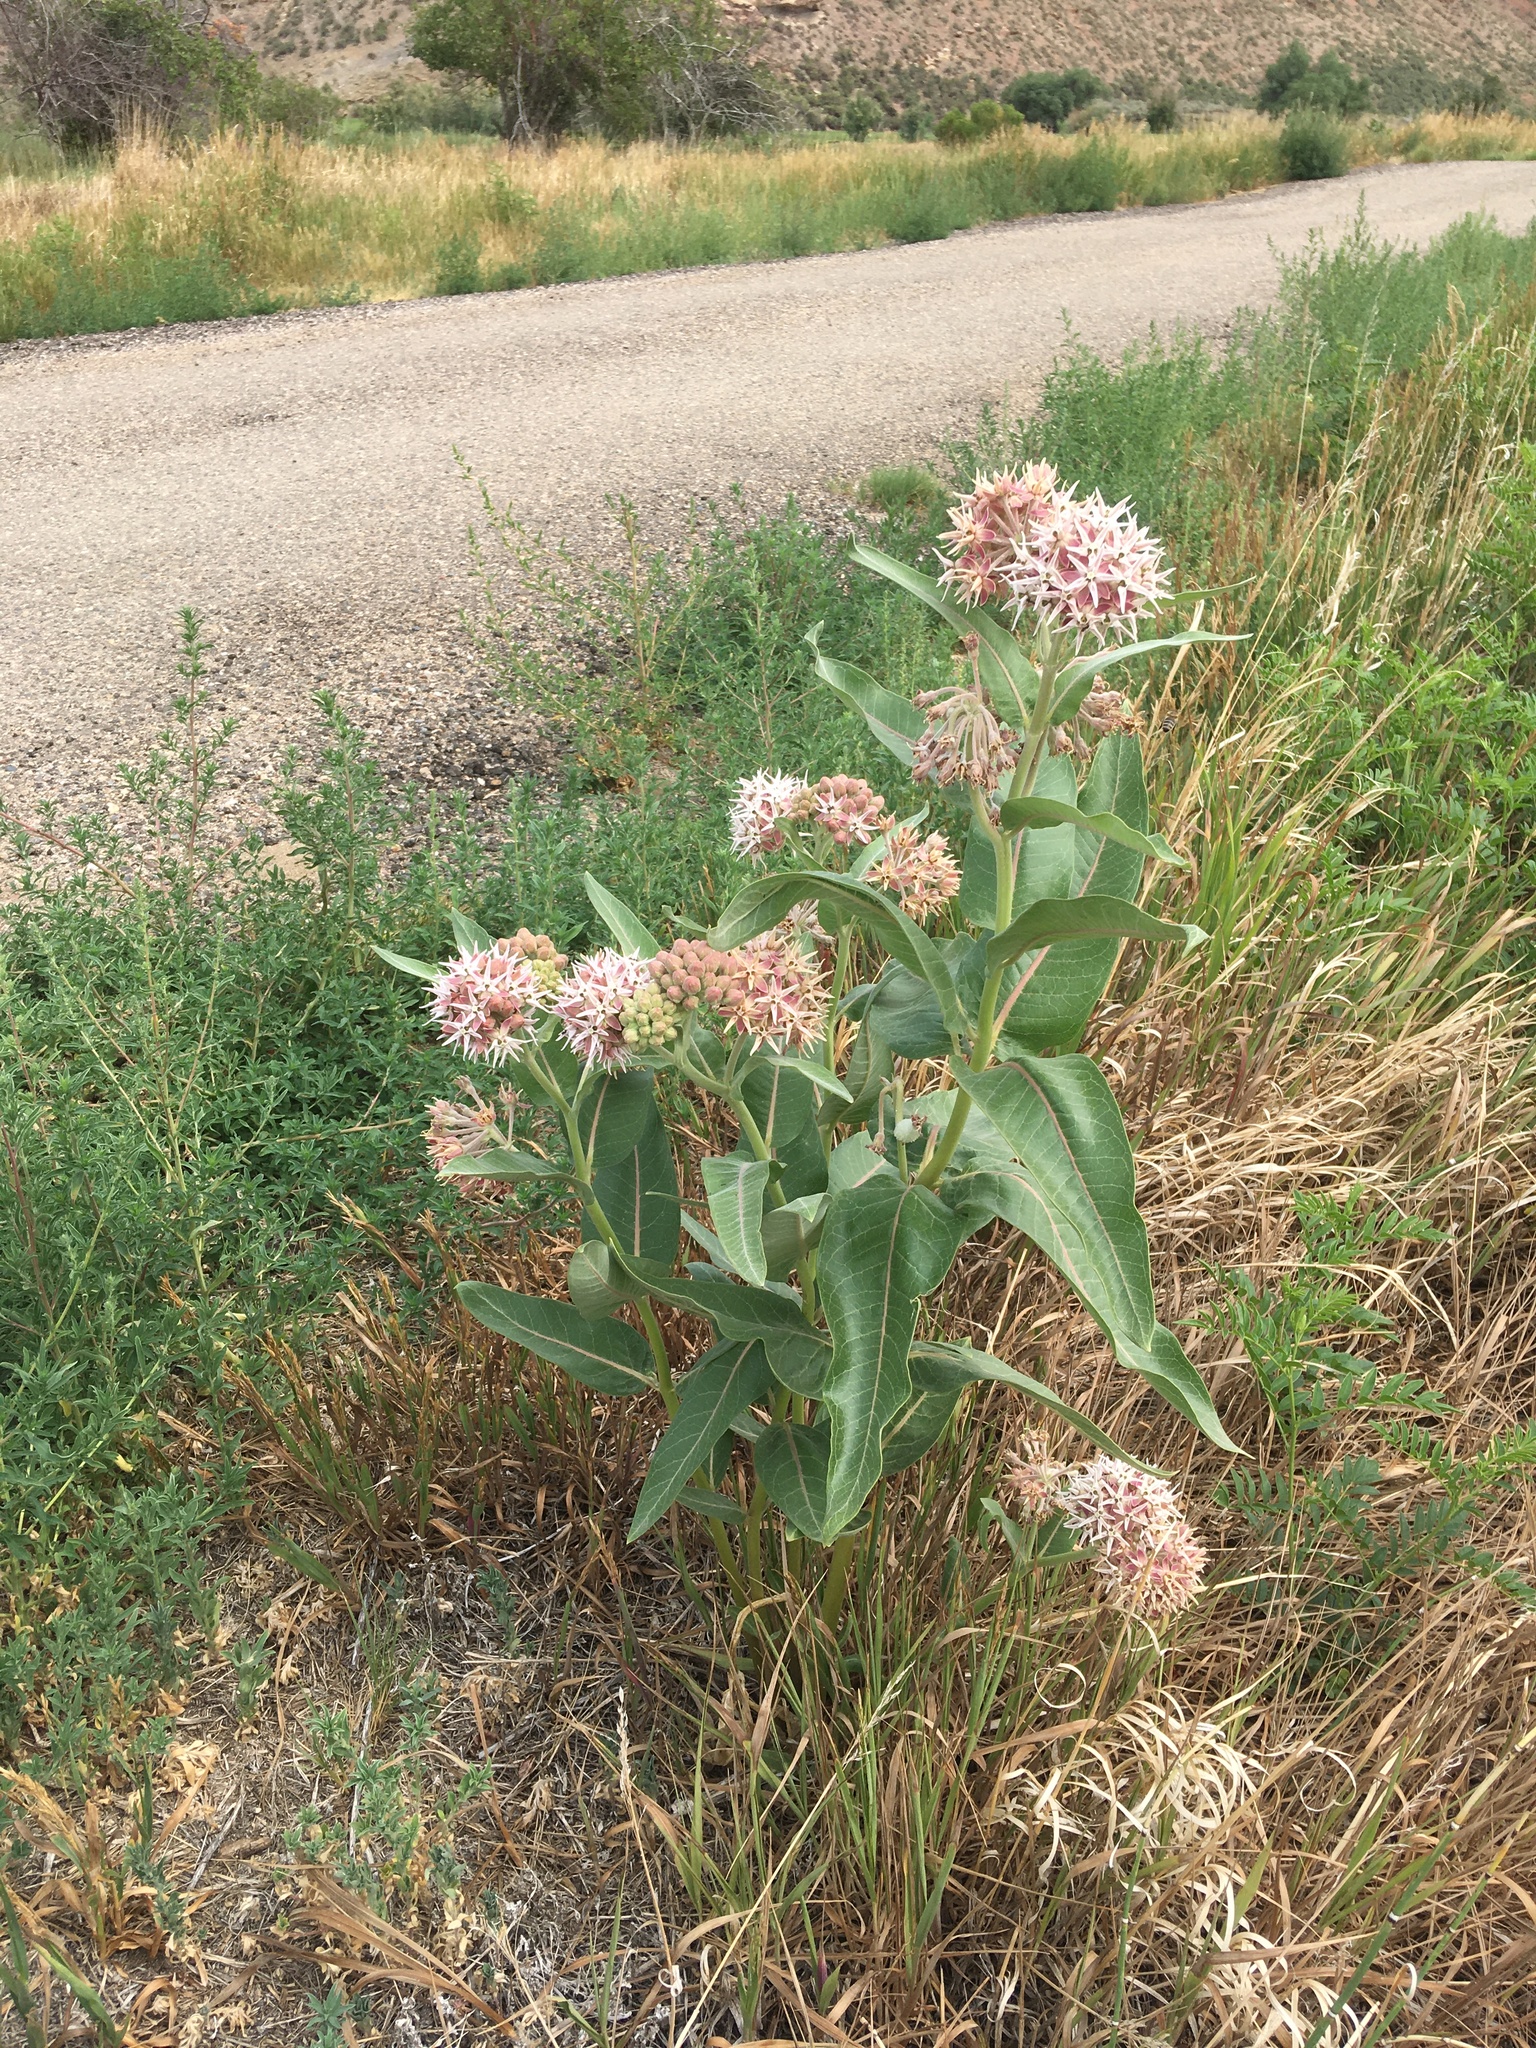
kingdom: Plantae
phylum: Tracheophyta
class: Magnoliopsida
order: Gentianales
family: Apocynaceae
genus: Asclepias
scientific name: Asclepias speciosa
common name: Showy milkweed
